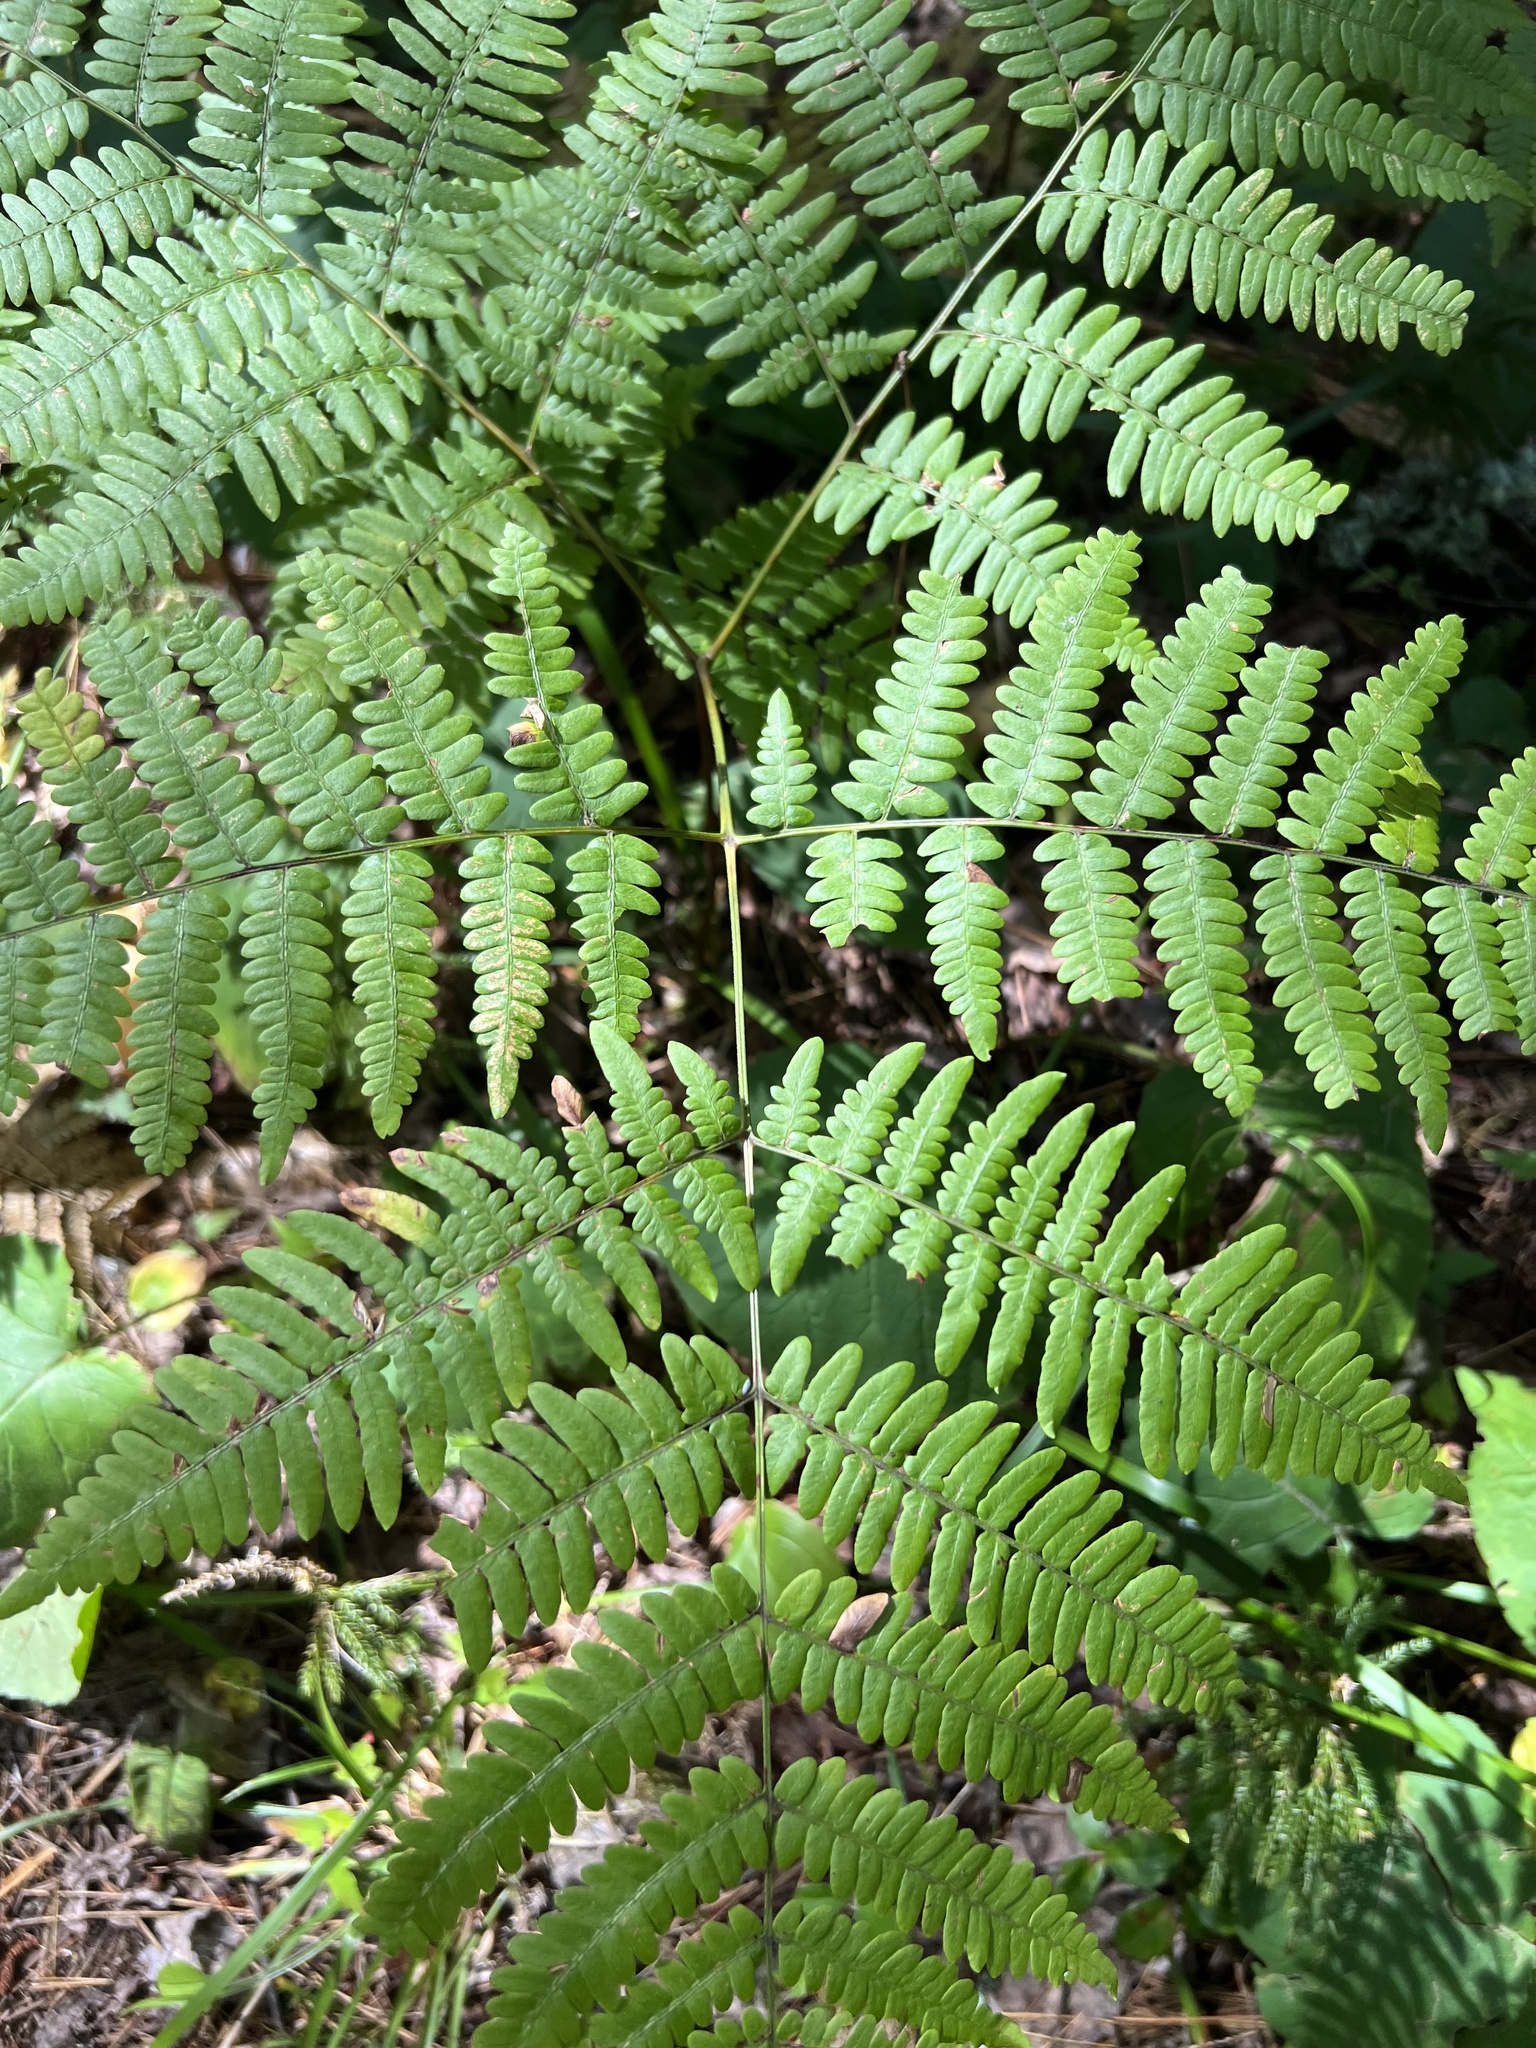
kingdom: Plantae
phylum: Tracheophyta
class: Polypodiopsida
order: Polypodiales
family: Dennstaedtiaceae
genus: Pteridium
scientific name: Pteridium aquilinum
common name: Bracken
